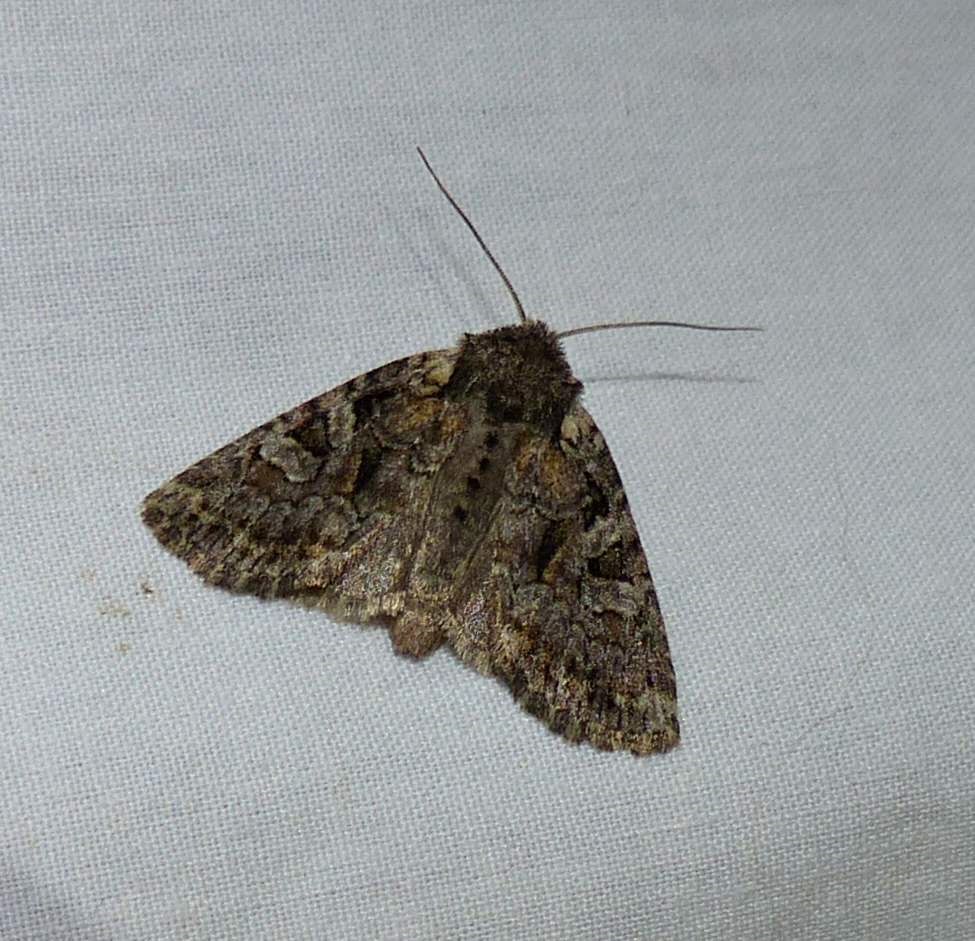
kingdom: Animalia
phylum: Arthropoda
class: Insecta
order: Lepidoptera
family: Noctuidae
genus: Orthodes
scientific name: Orthodes detracta
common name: Disparaged arches moth
